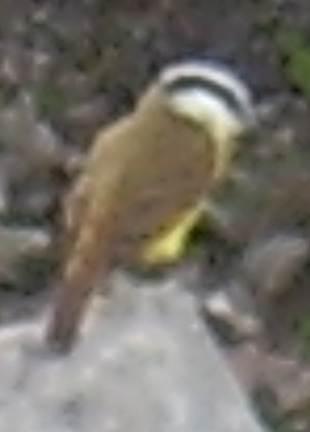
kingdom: Animalia
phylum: Chordata
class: Aves
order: Passeriformes
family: Tyrannidae
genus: Pitangus
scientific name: Pitangus sulphuratus
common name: Great kiskadee
